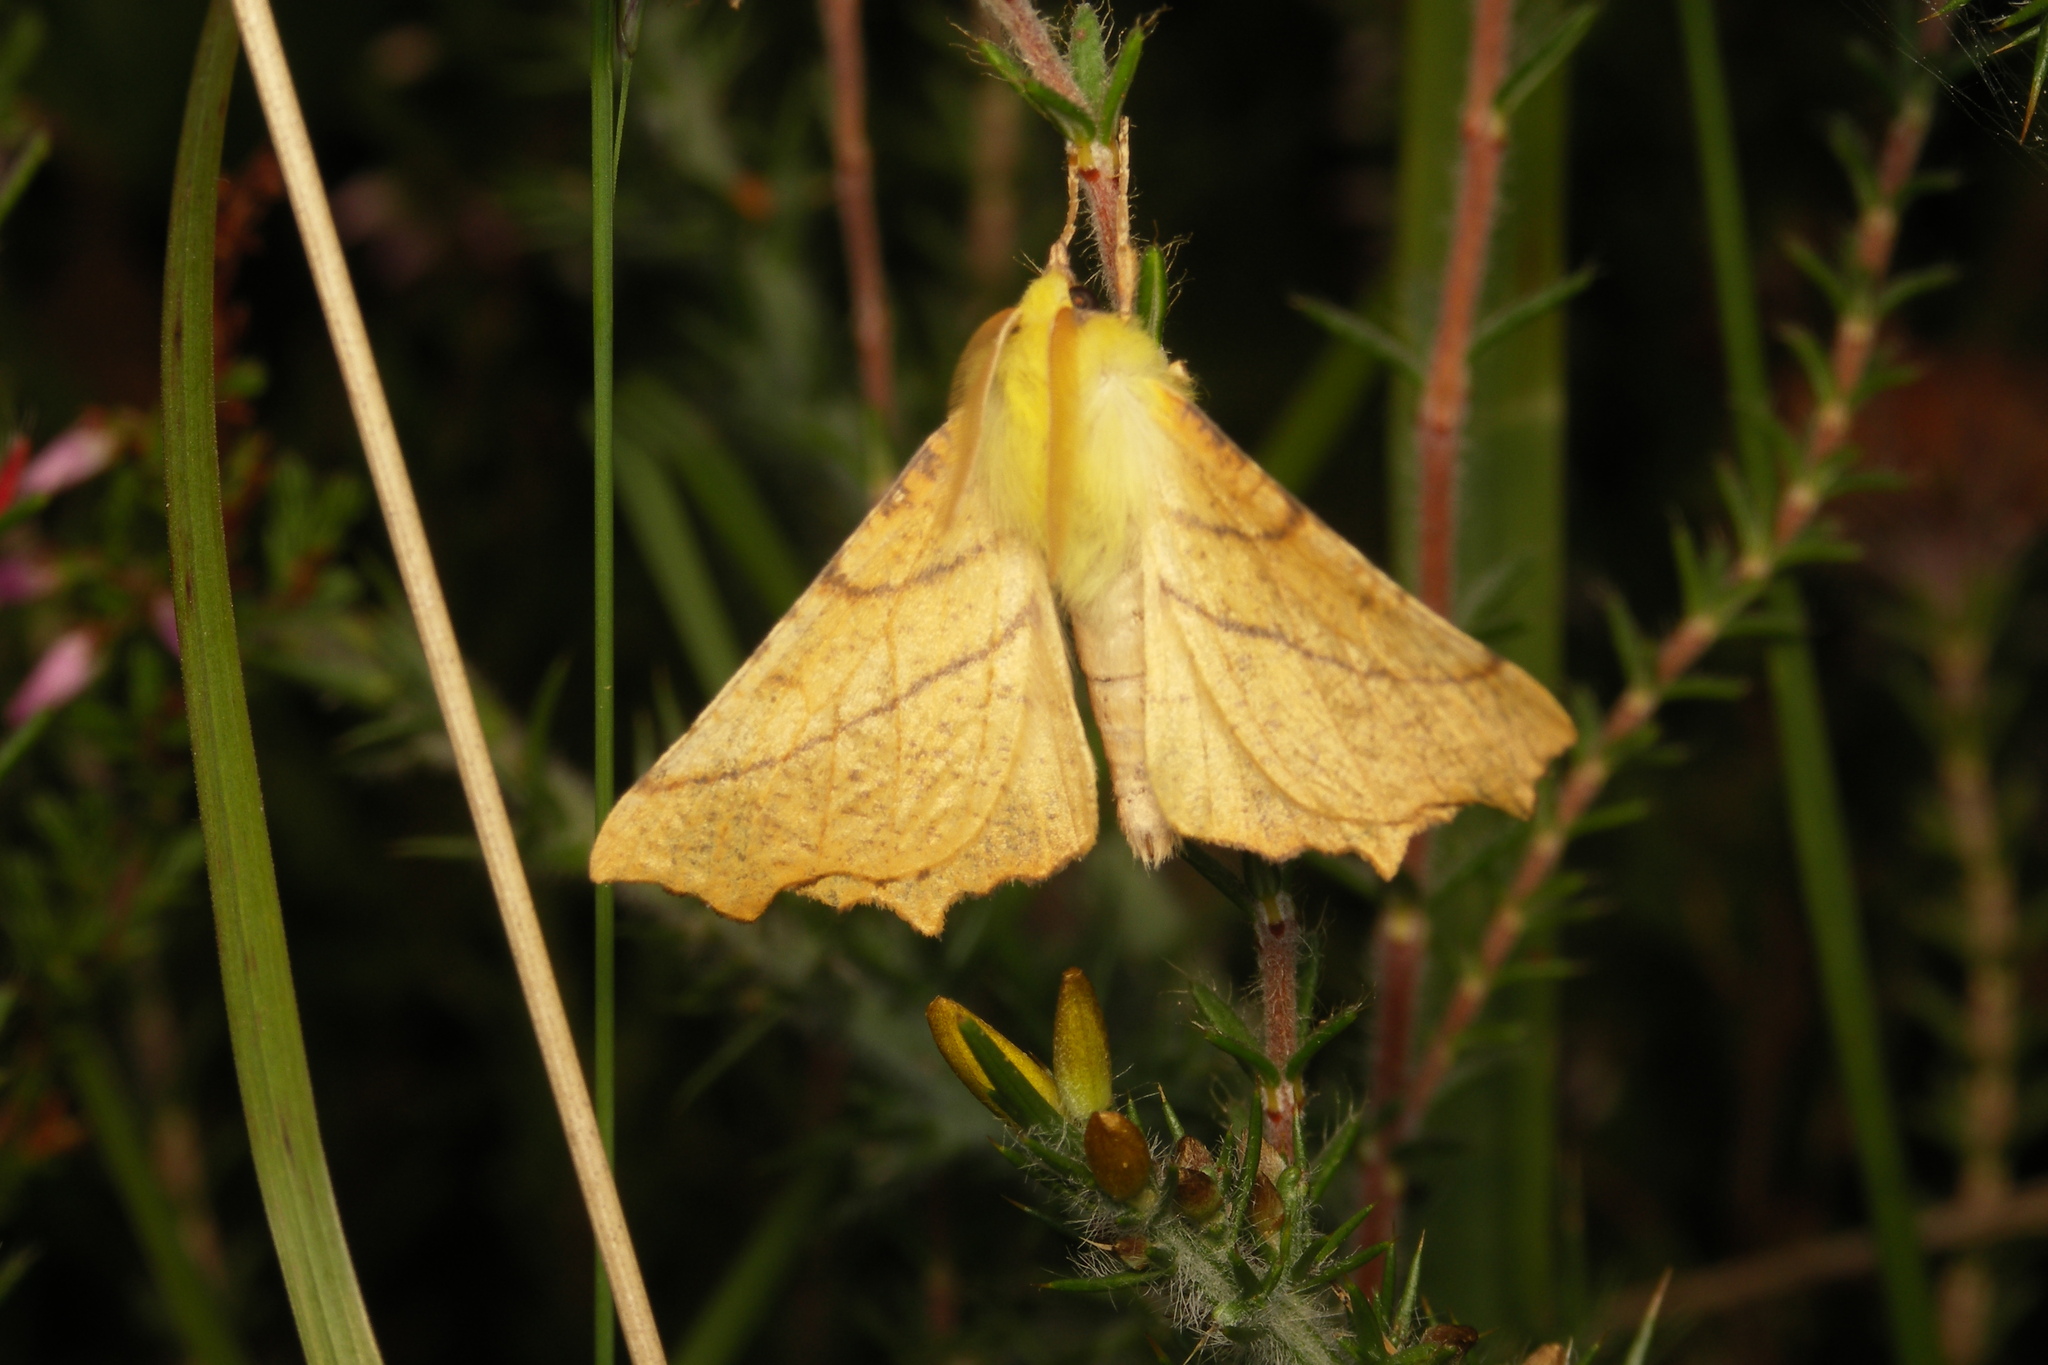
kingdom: Animalia
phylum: Arthropoda
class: Insecta
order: Lepidoptera
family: Geometridae
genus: Ennomos
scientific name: Ennomos alniaria
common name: Canary-shouldered thorn
